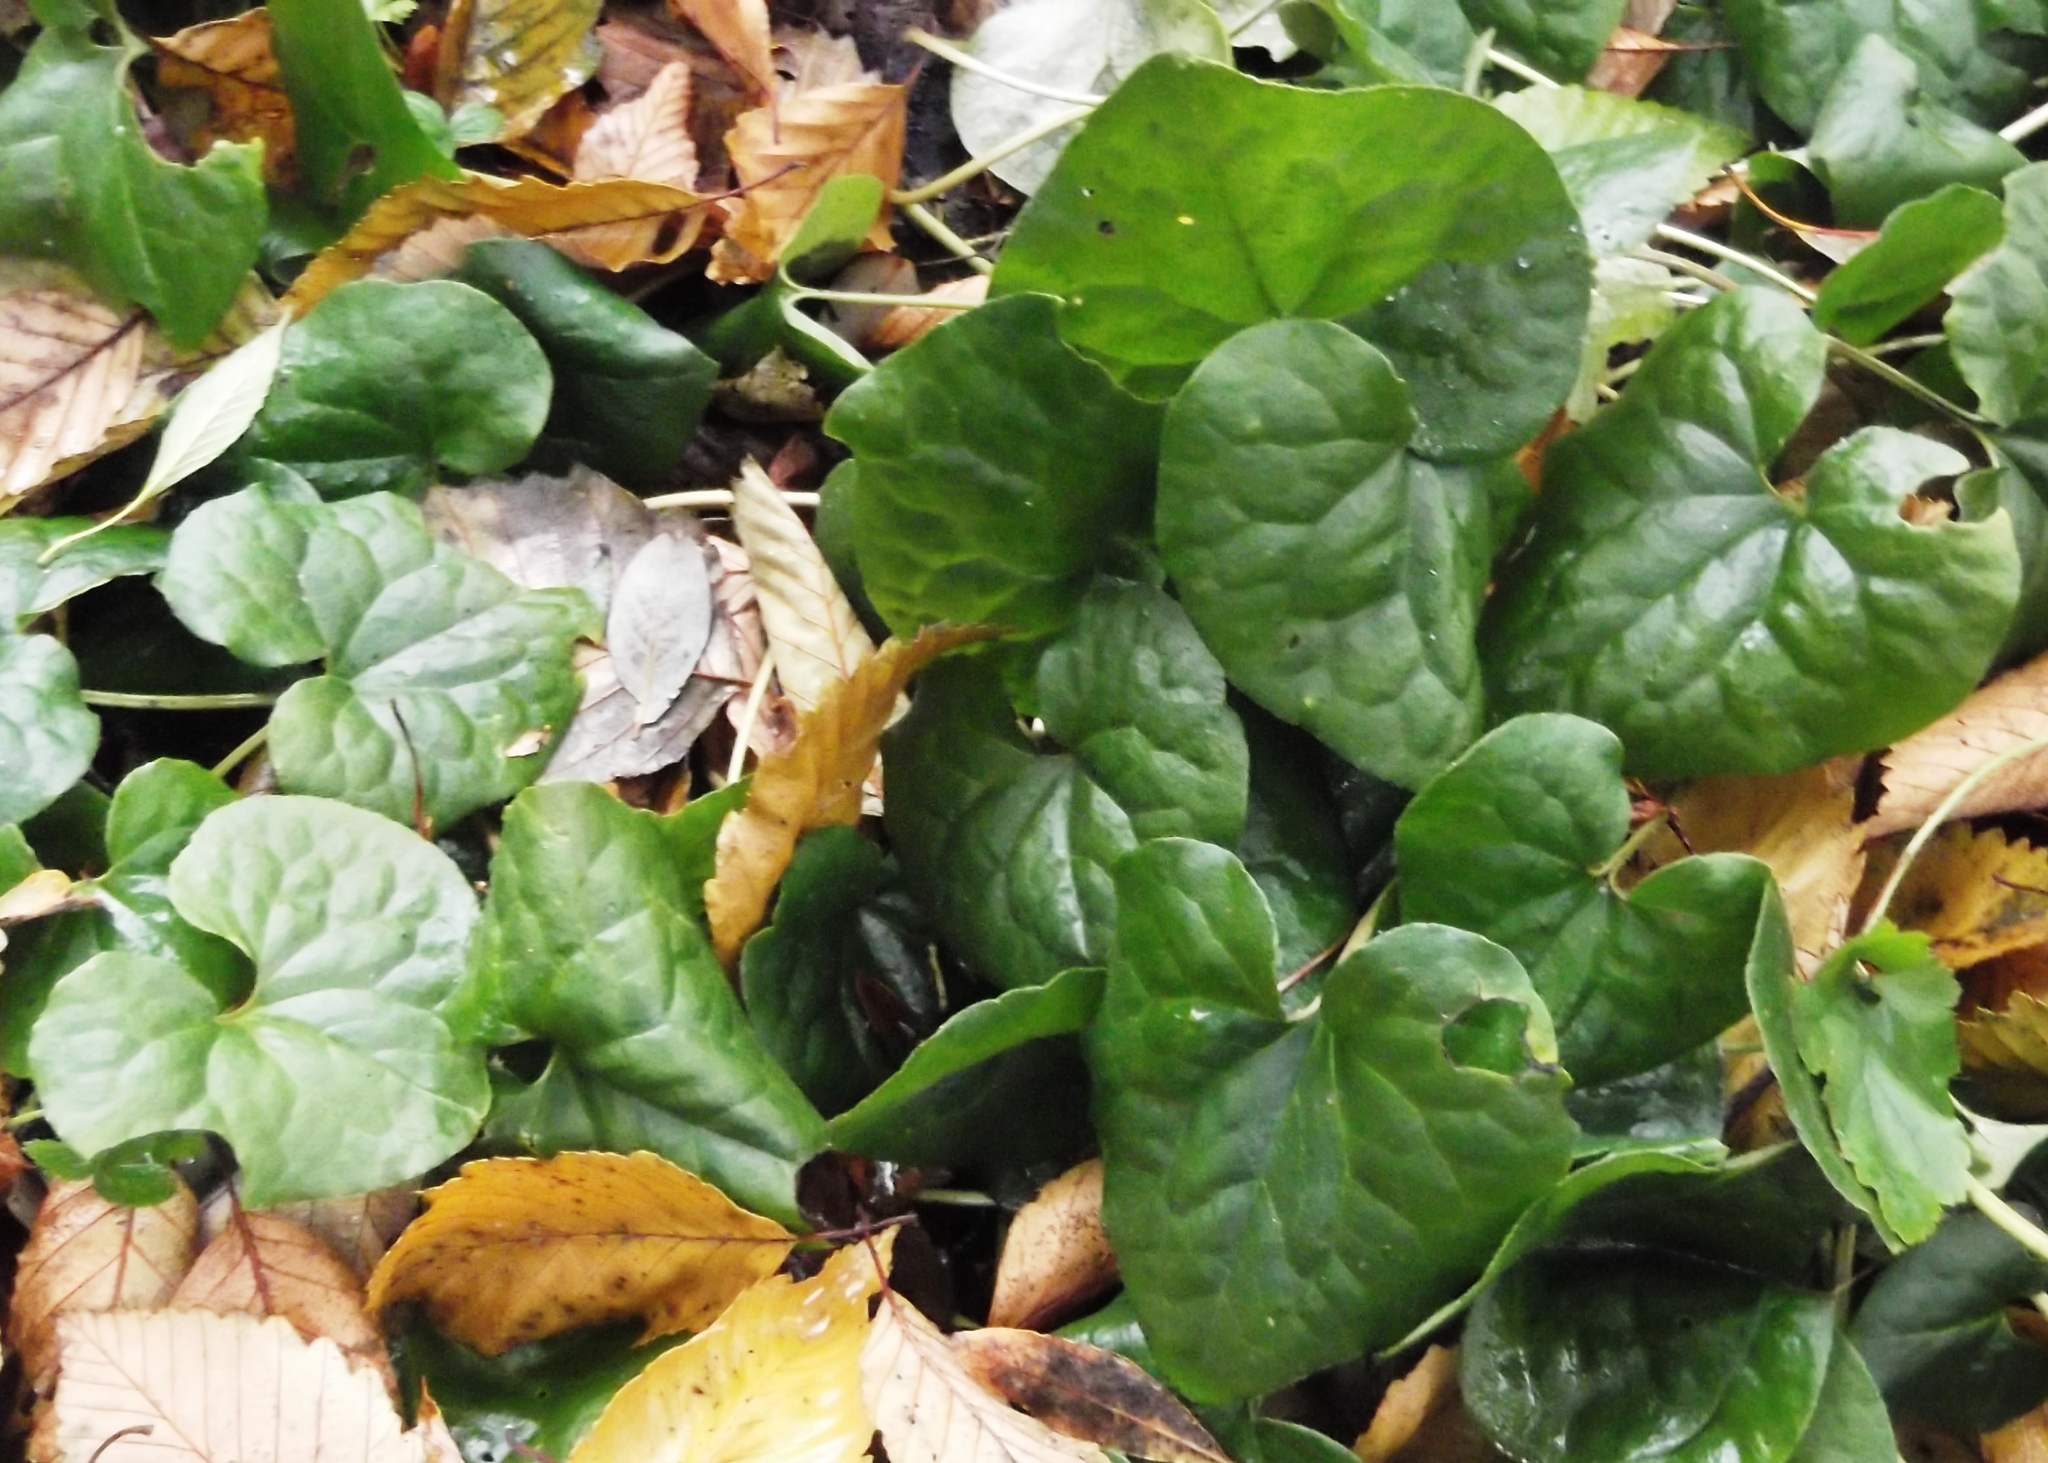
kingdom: Plantae
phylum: Tracheophyta
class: Magnoliopsida
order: Piperales
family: Aristolochiaceae
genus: Asarum
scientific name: Asarum caudatum
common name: Wild ginger
